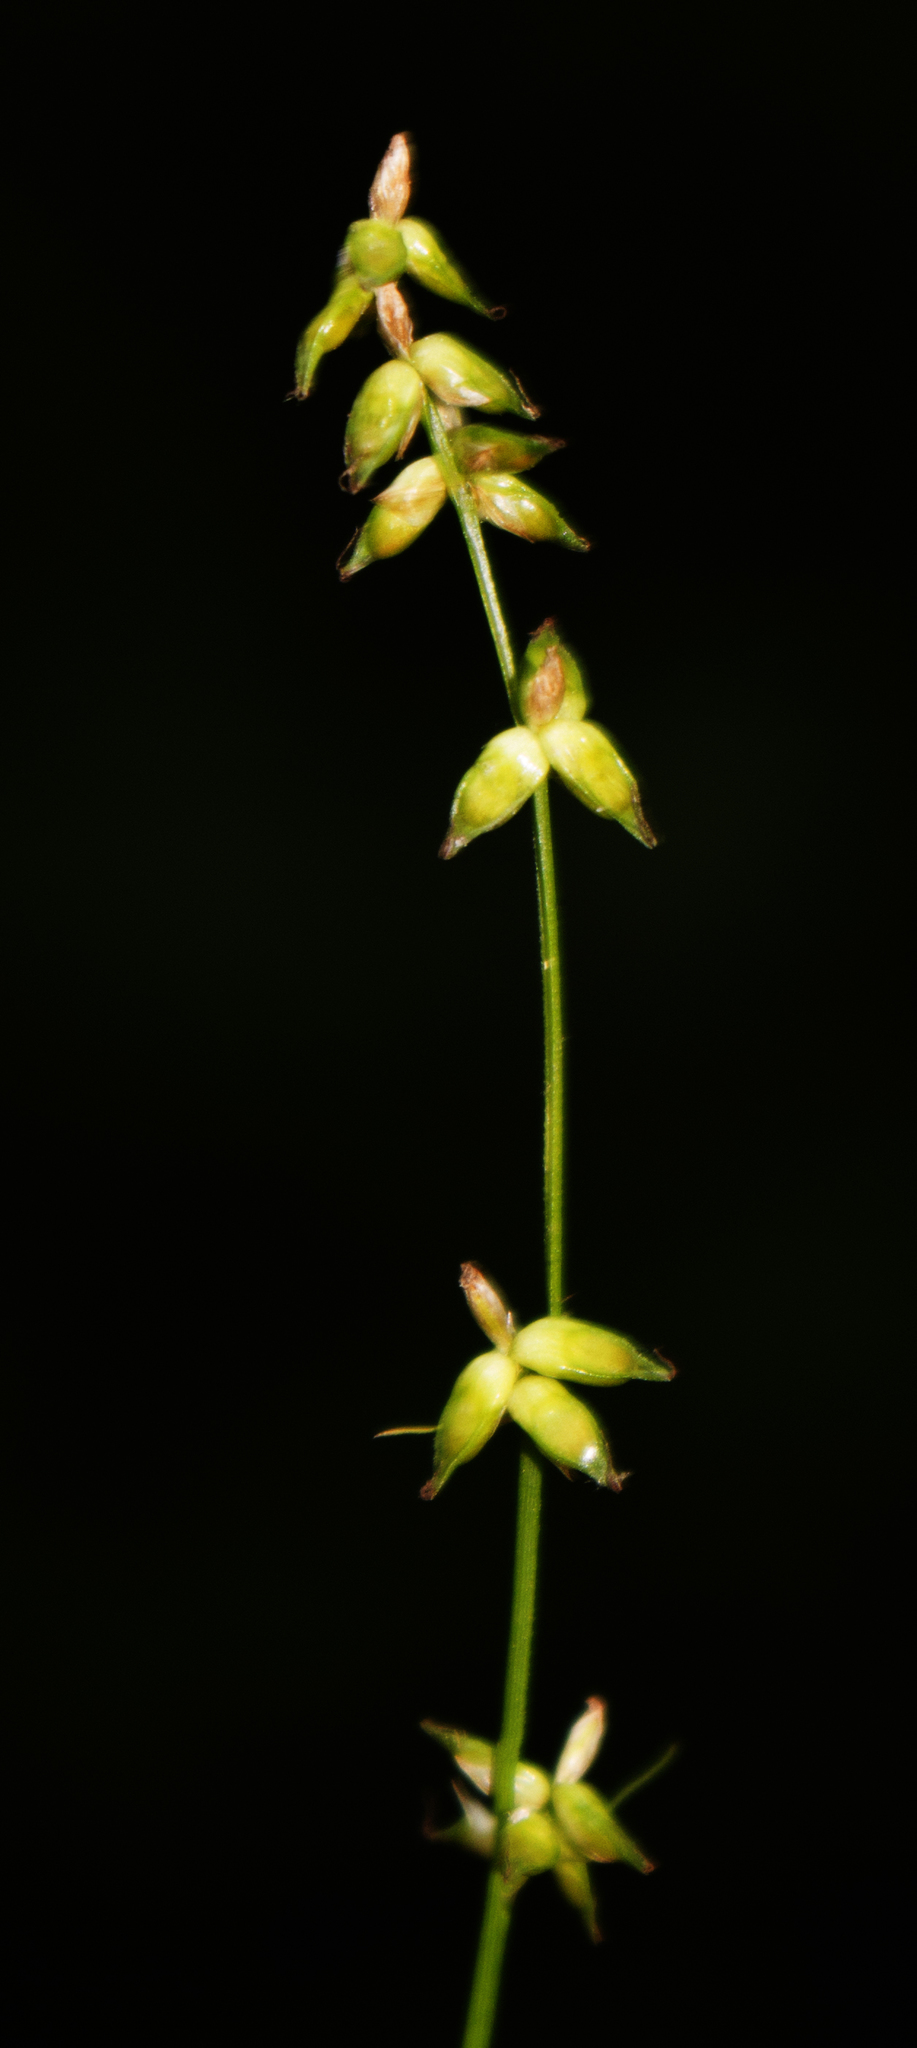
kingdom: Plantae
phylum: Tracheophyta
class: Liliopsida
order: Poales
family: Cyperaceae
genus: Carex
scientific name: Carex radiata
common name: Eastern star sedge
